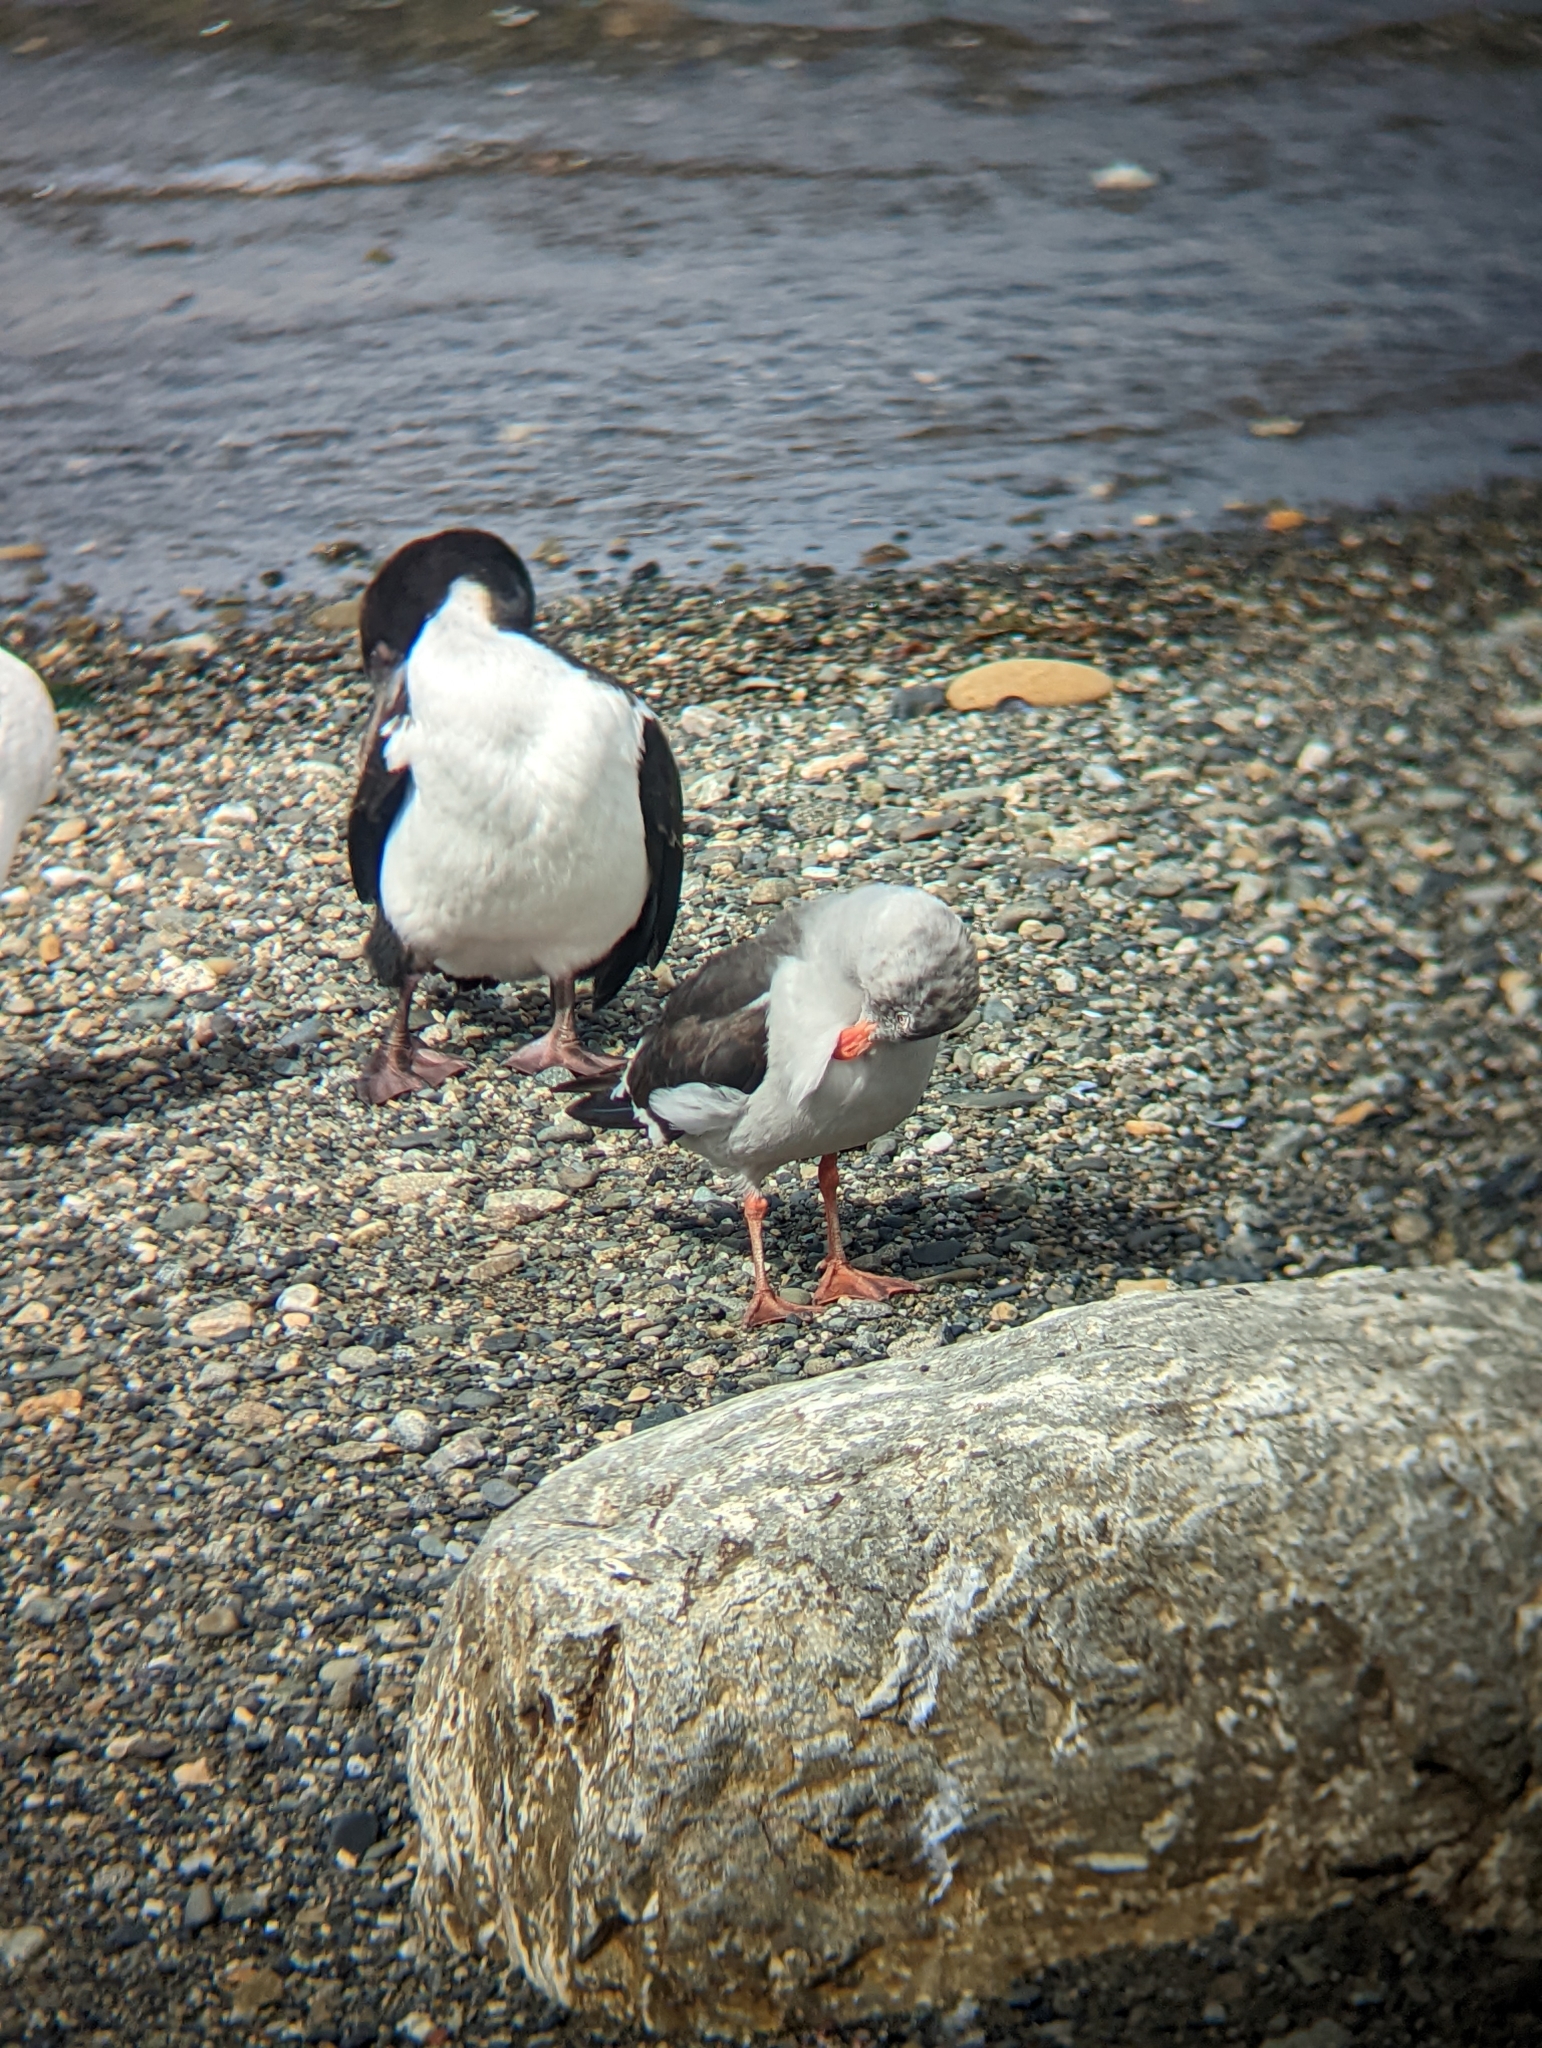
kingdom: Animalia
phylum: Chordata
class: Aves
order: Charadriiformes
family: Laridae
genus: Leucophaeus
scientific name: Leucophaeus scoresbii
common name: Dolphin gull
